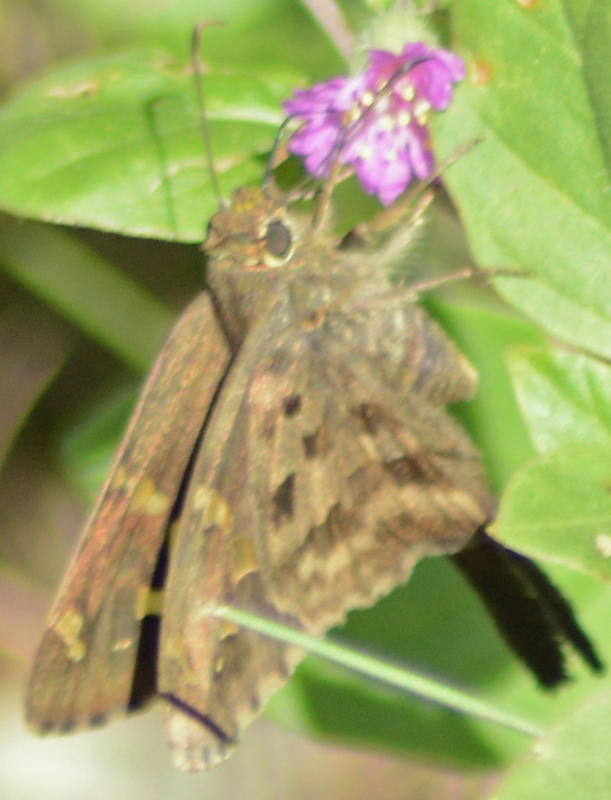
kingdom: Animalia
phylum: Arthropoda
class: Insecta
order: Lepidoptera
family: Hesperiidae
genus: Thorybes
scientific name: Thorybes
